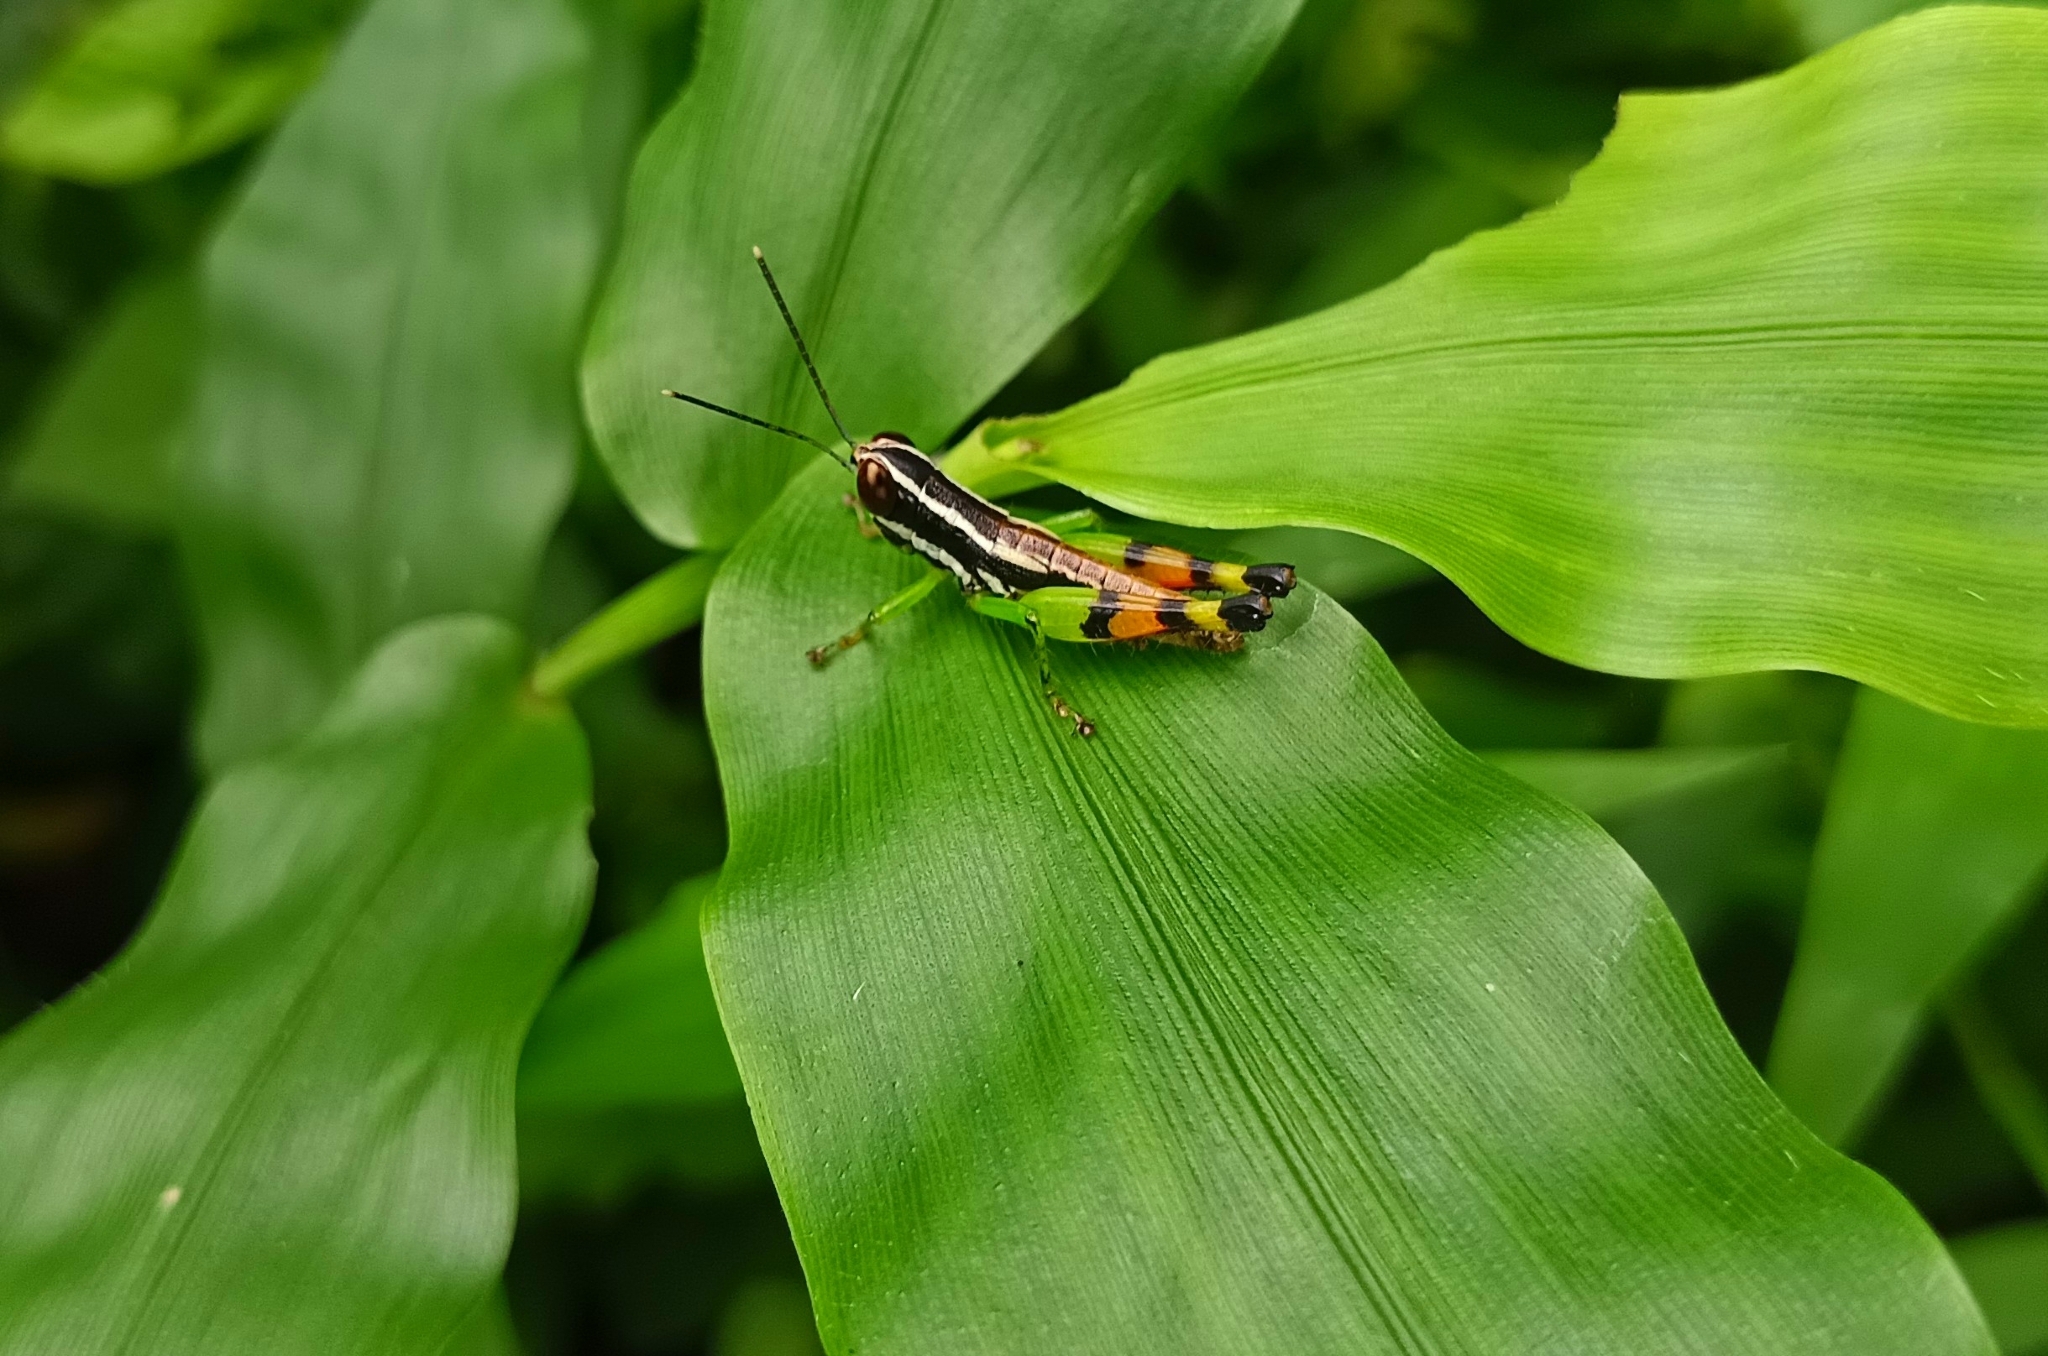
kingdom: Animalia
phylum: Arthropoda
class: Insecta
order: Orthoptera
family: Acrididae
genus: Chitaura
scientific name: Chitaura indica
